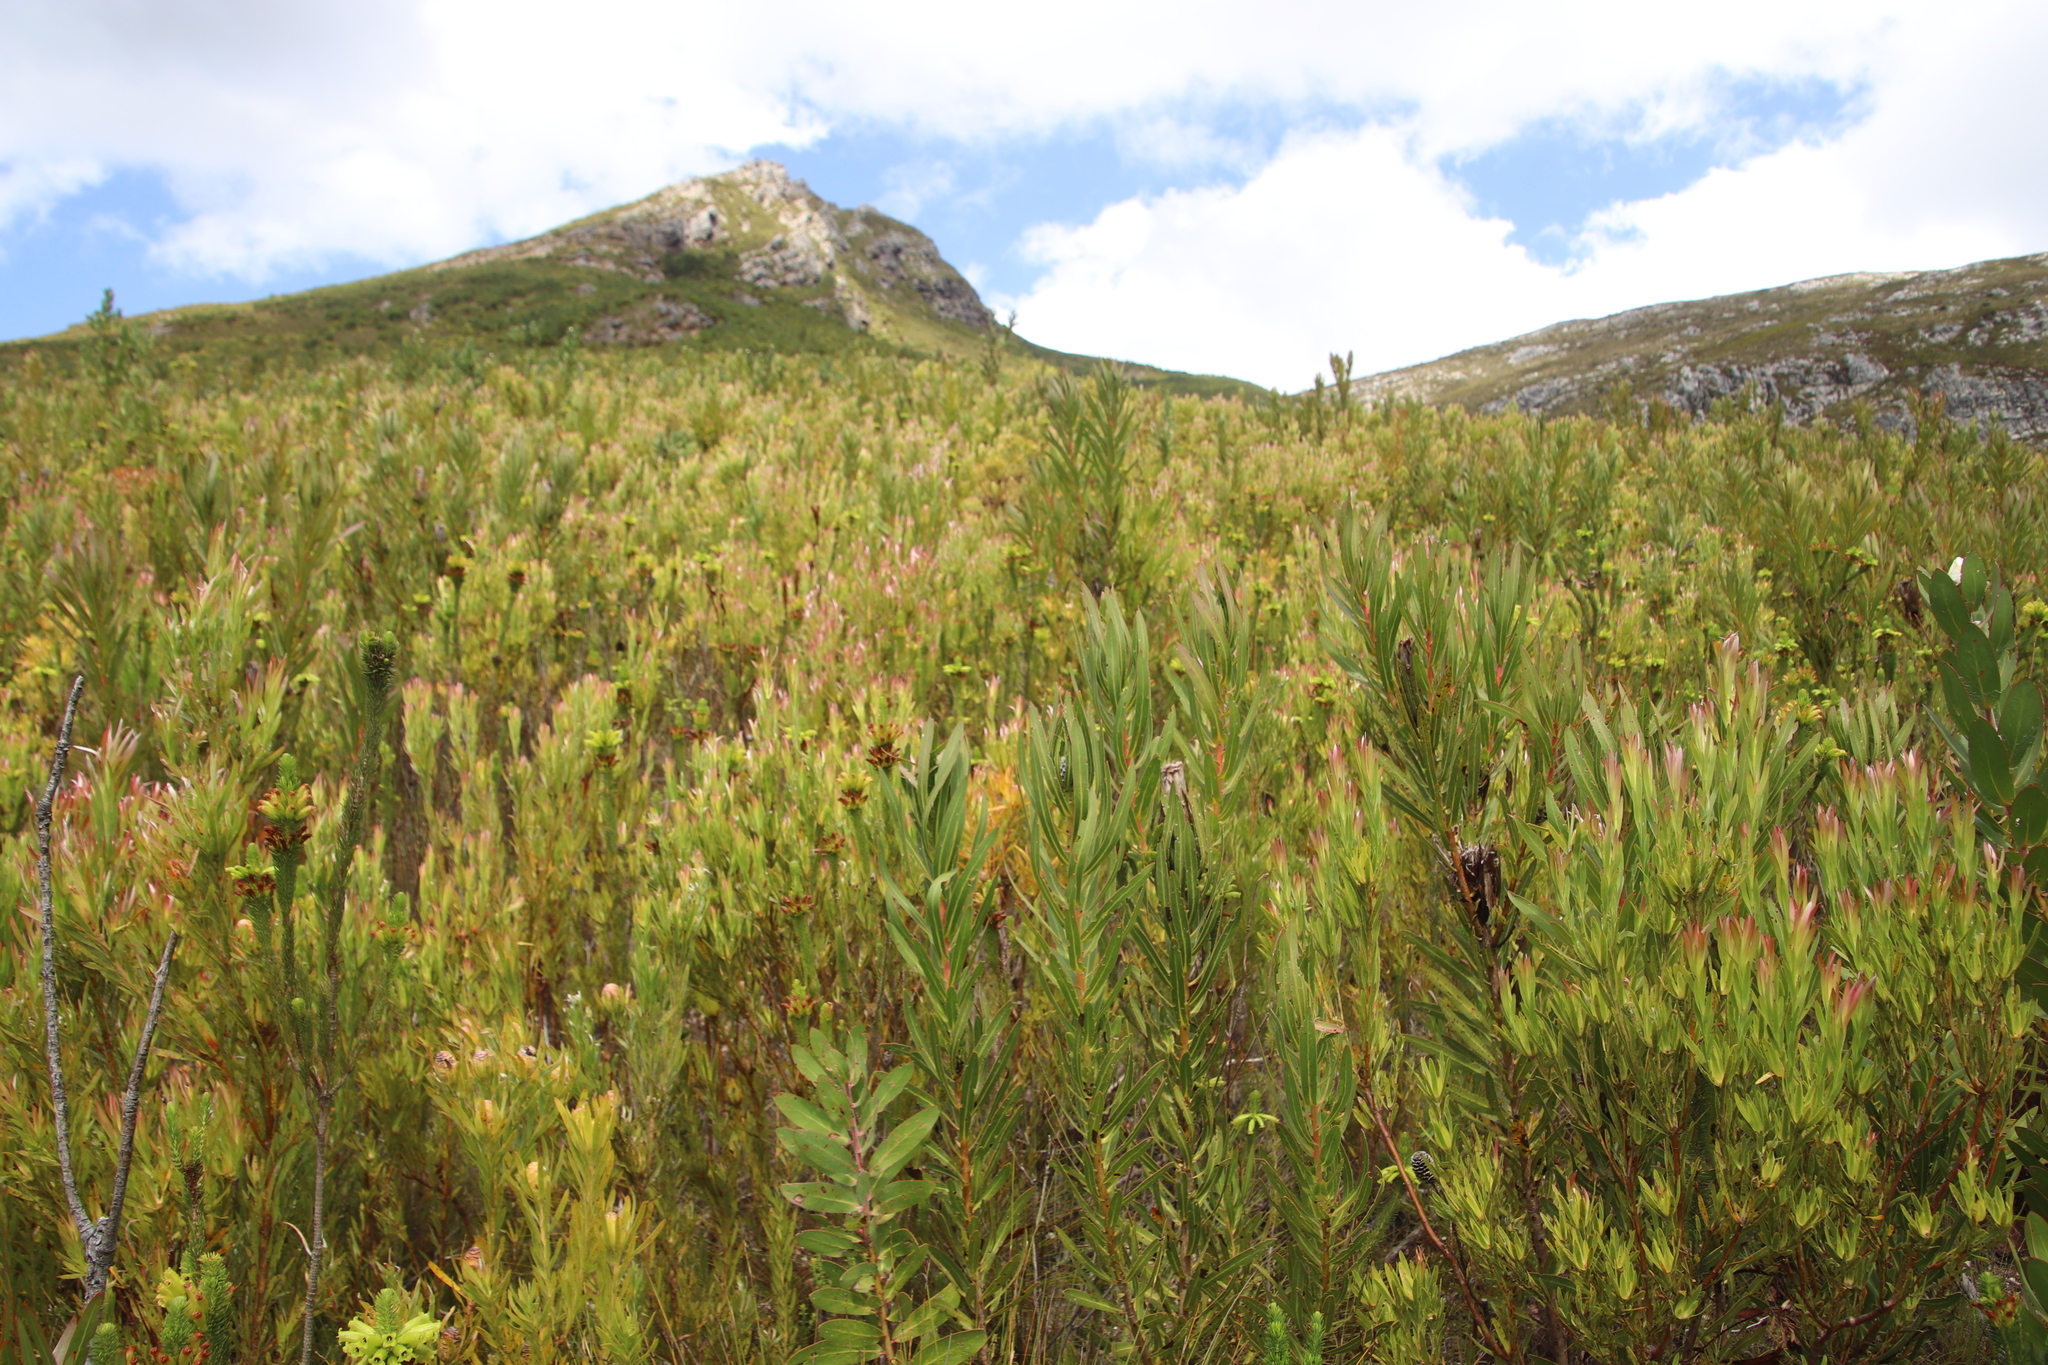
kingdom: Plantae
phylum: Tracheophyta
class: Magnoliopsida
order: Proteales
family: Proteaceae
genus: Leucadendron
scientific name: Leucadendron xanthoconus
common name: Sickle-leaf conebush
